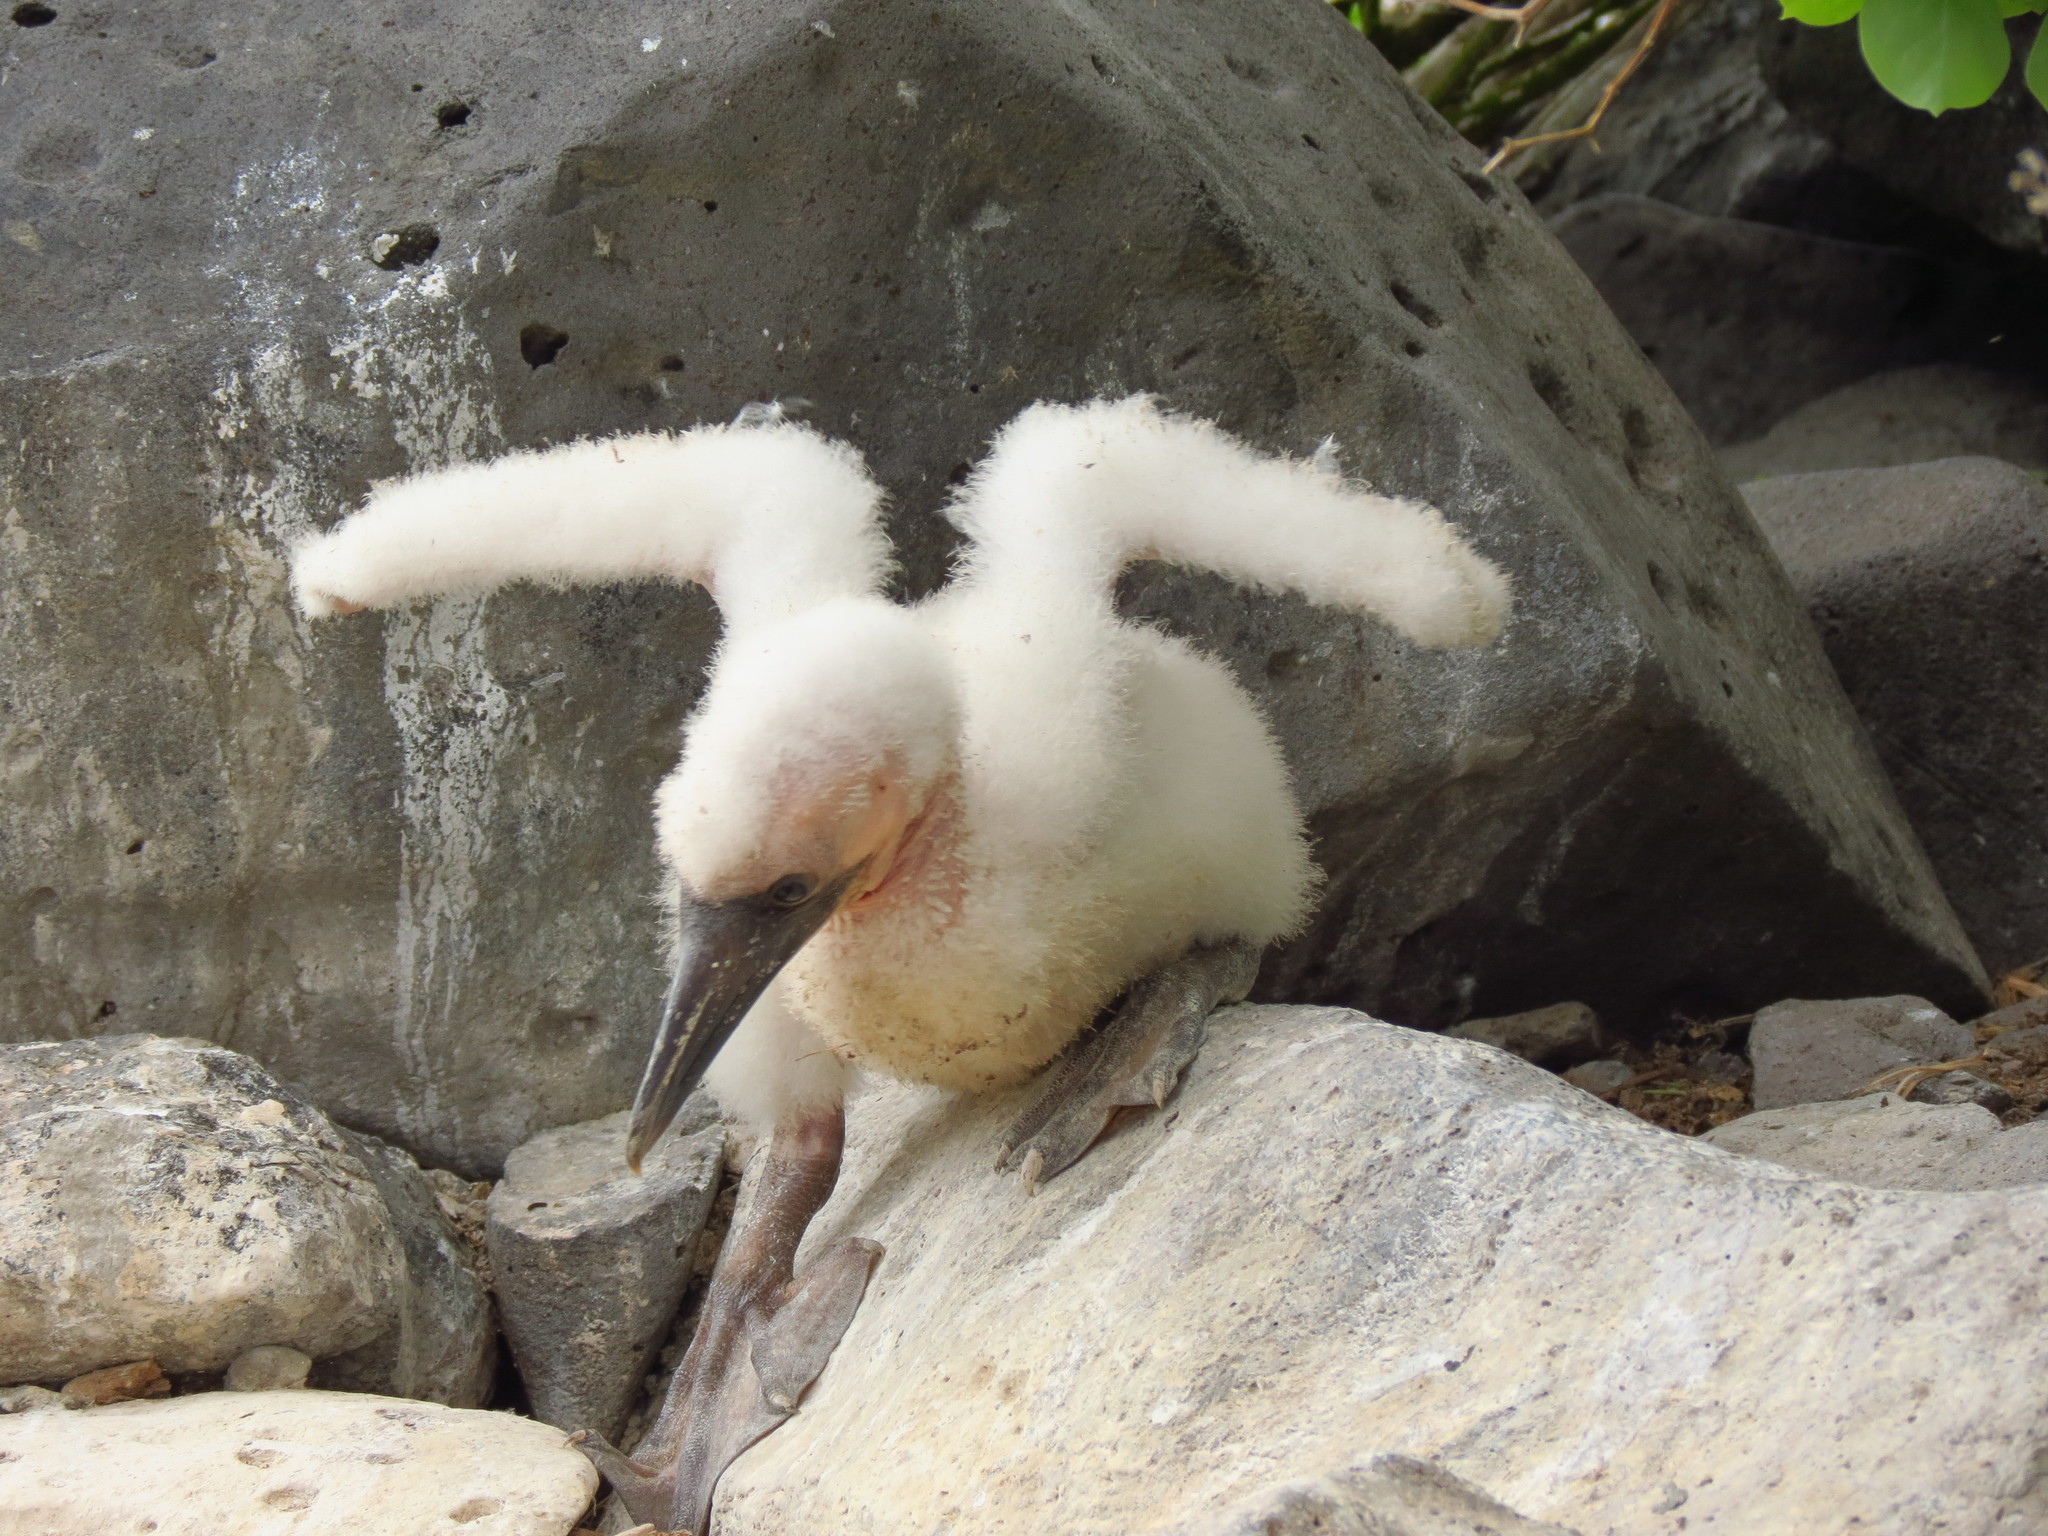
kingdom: Animalia
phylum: Chordata
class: Aves
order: Suliformes
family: Sulidae
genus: Sula
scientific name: Sula granti
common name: Nazca booby
